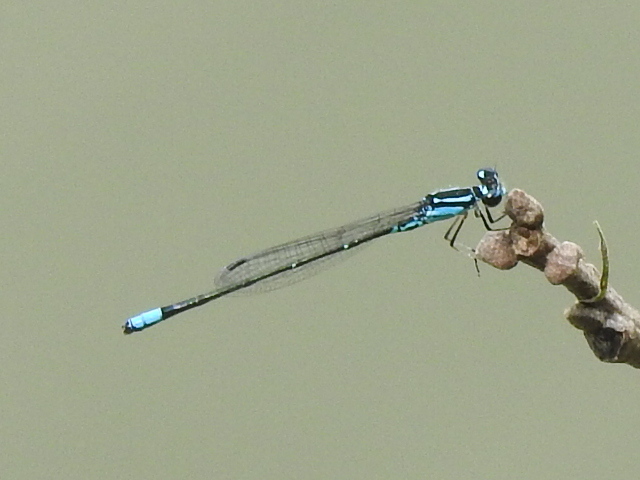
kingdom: Animalia
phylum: Arthropoda
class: Insecta
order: Odonata
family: Coenagrionidae
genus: Enallagma
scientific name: Enallagma geminatum
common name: Skimming bluet
